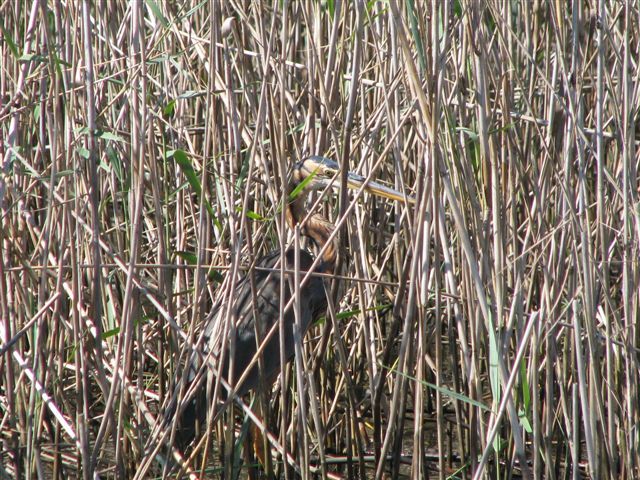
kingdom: Animalia
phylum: Chordata
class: Aves
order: Pelecaniformes
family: Ardeidae
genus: Ardea
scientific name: Ardea purpurea
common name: Purple heron
